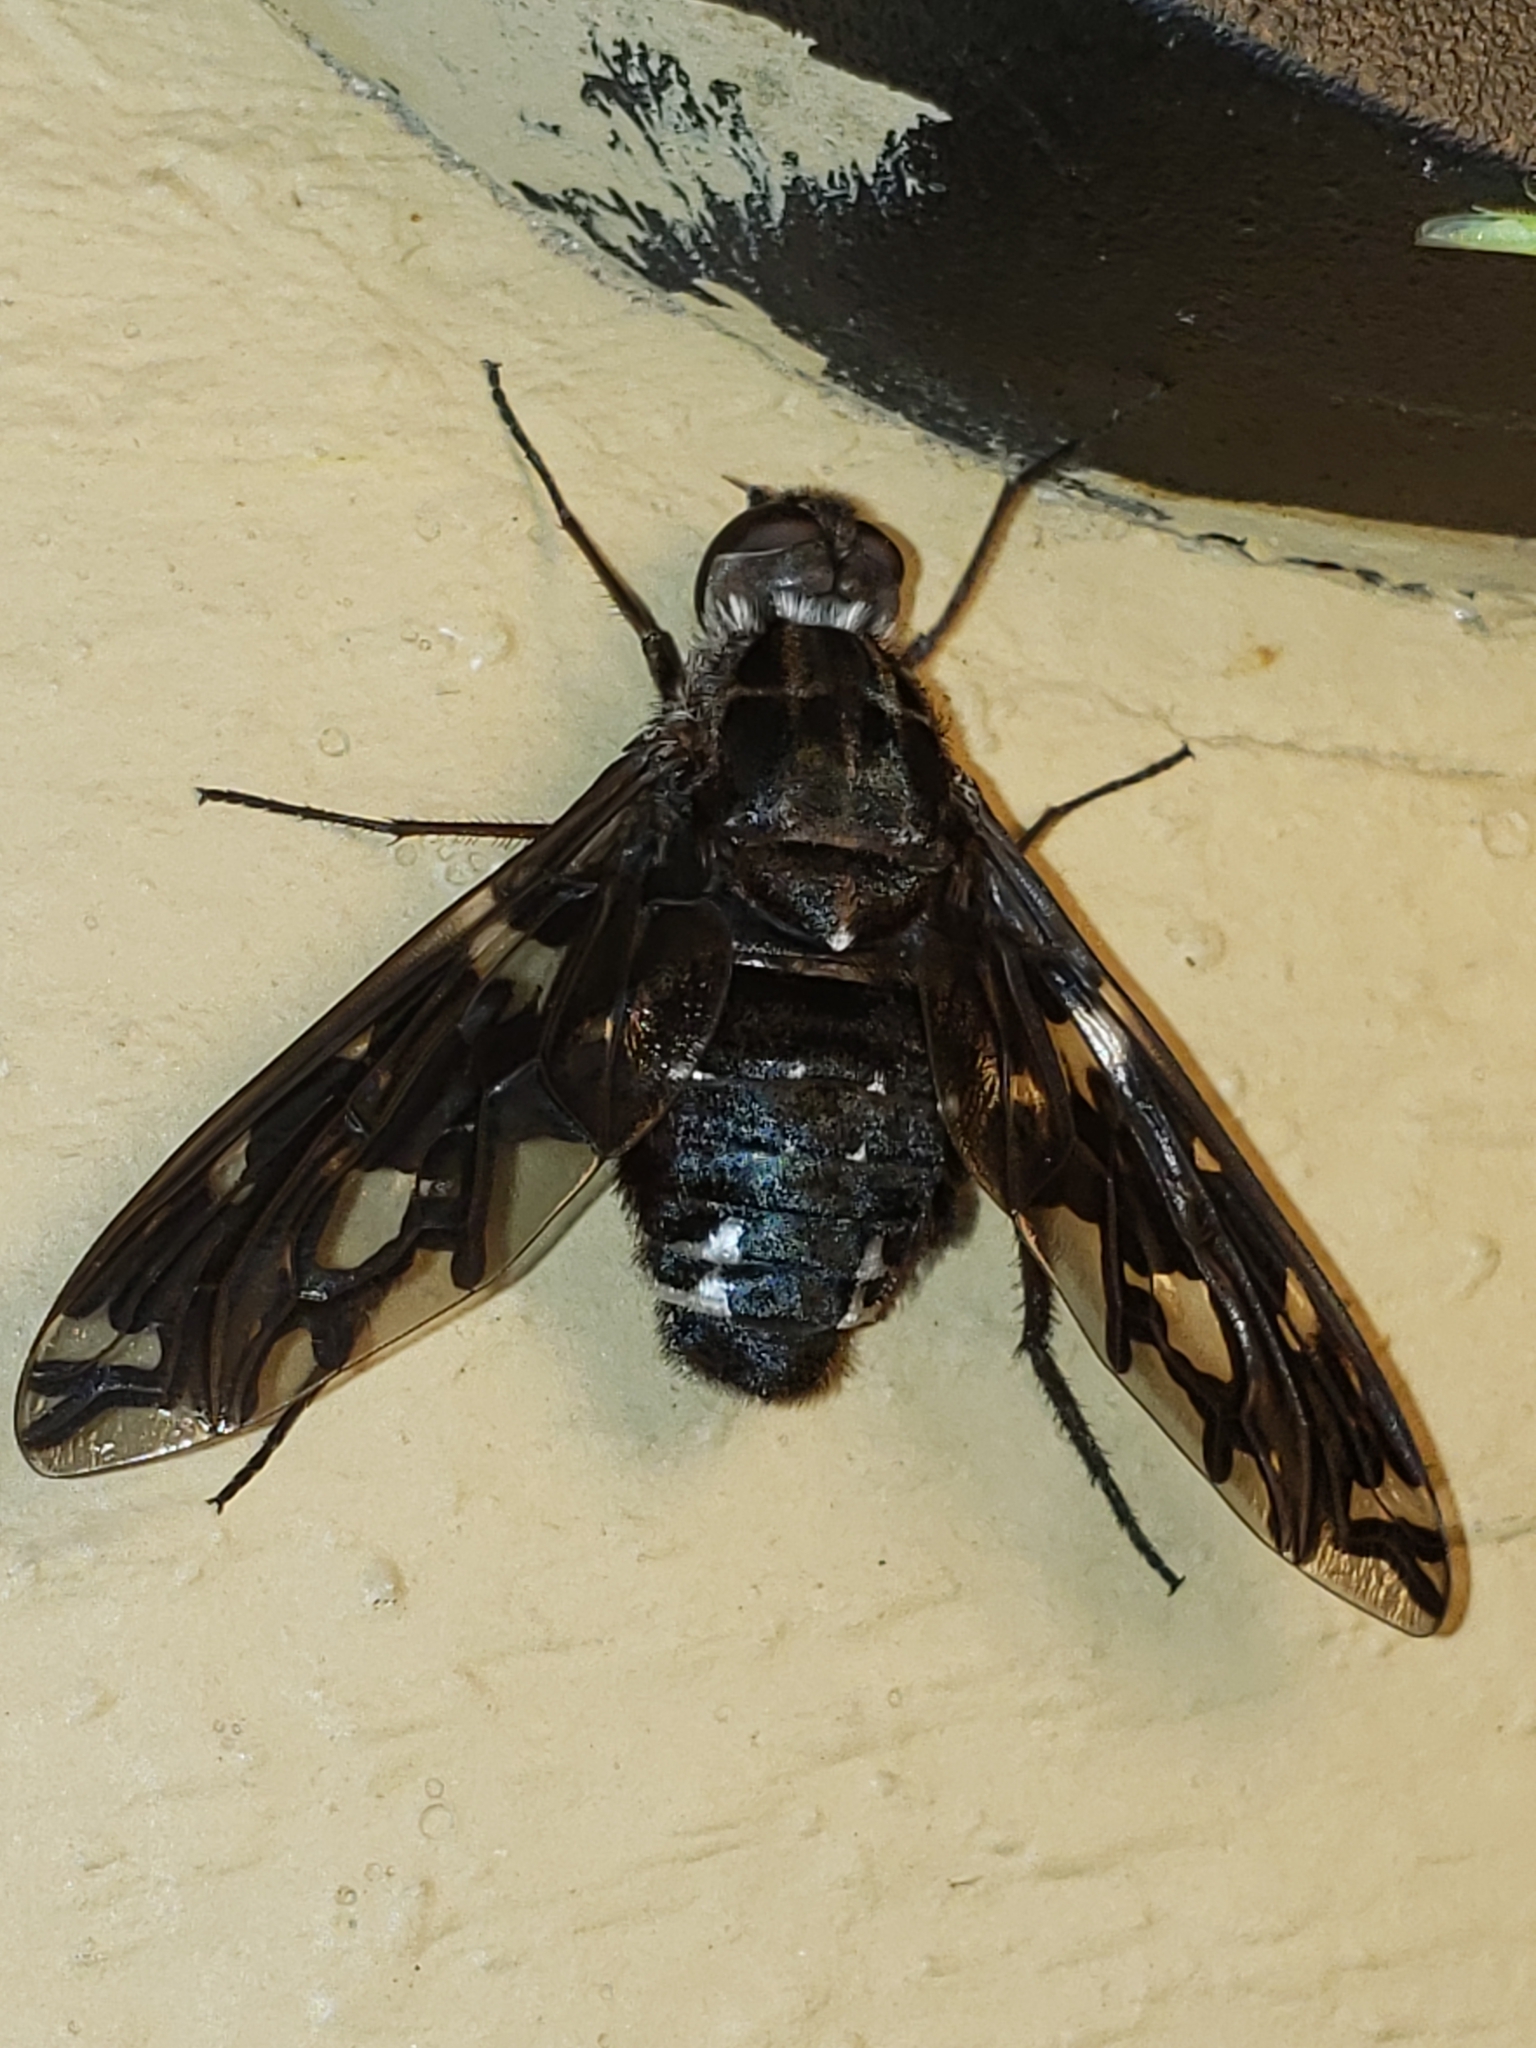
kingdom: Animalia
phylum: Arthropoda
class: Insecta
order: Diptera
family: Bombyliidae
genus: Xenox
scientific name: Xenox tigrinus
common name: Tiger bee fly
